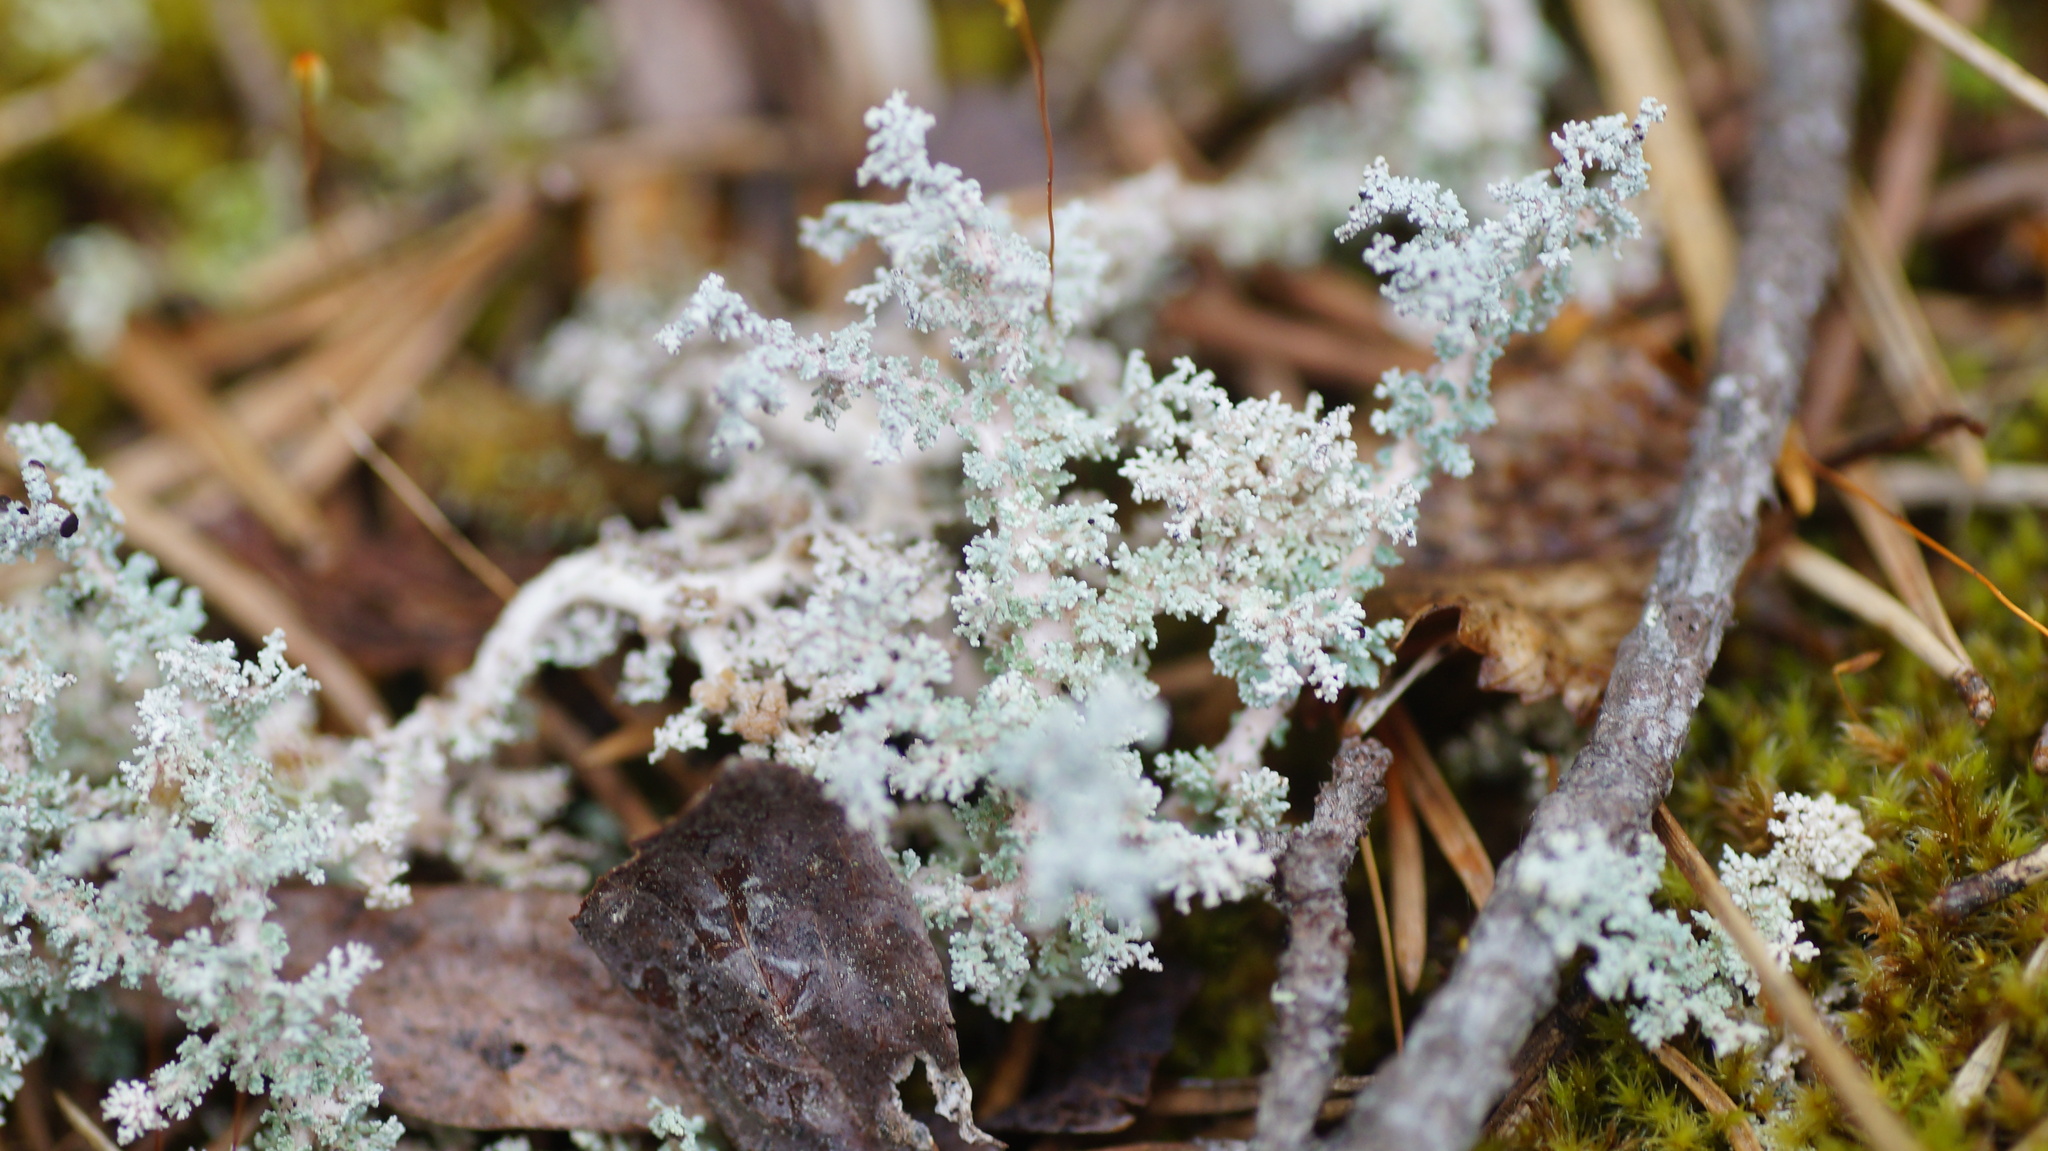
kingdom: Fungi
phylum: Ascomycota
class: Lecanoromycetes
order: Lecanorales
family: Stereocaulaceae
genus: Stereocaulon
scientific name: Stereocaulon
